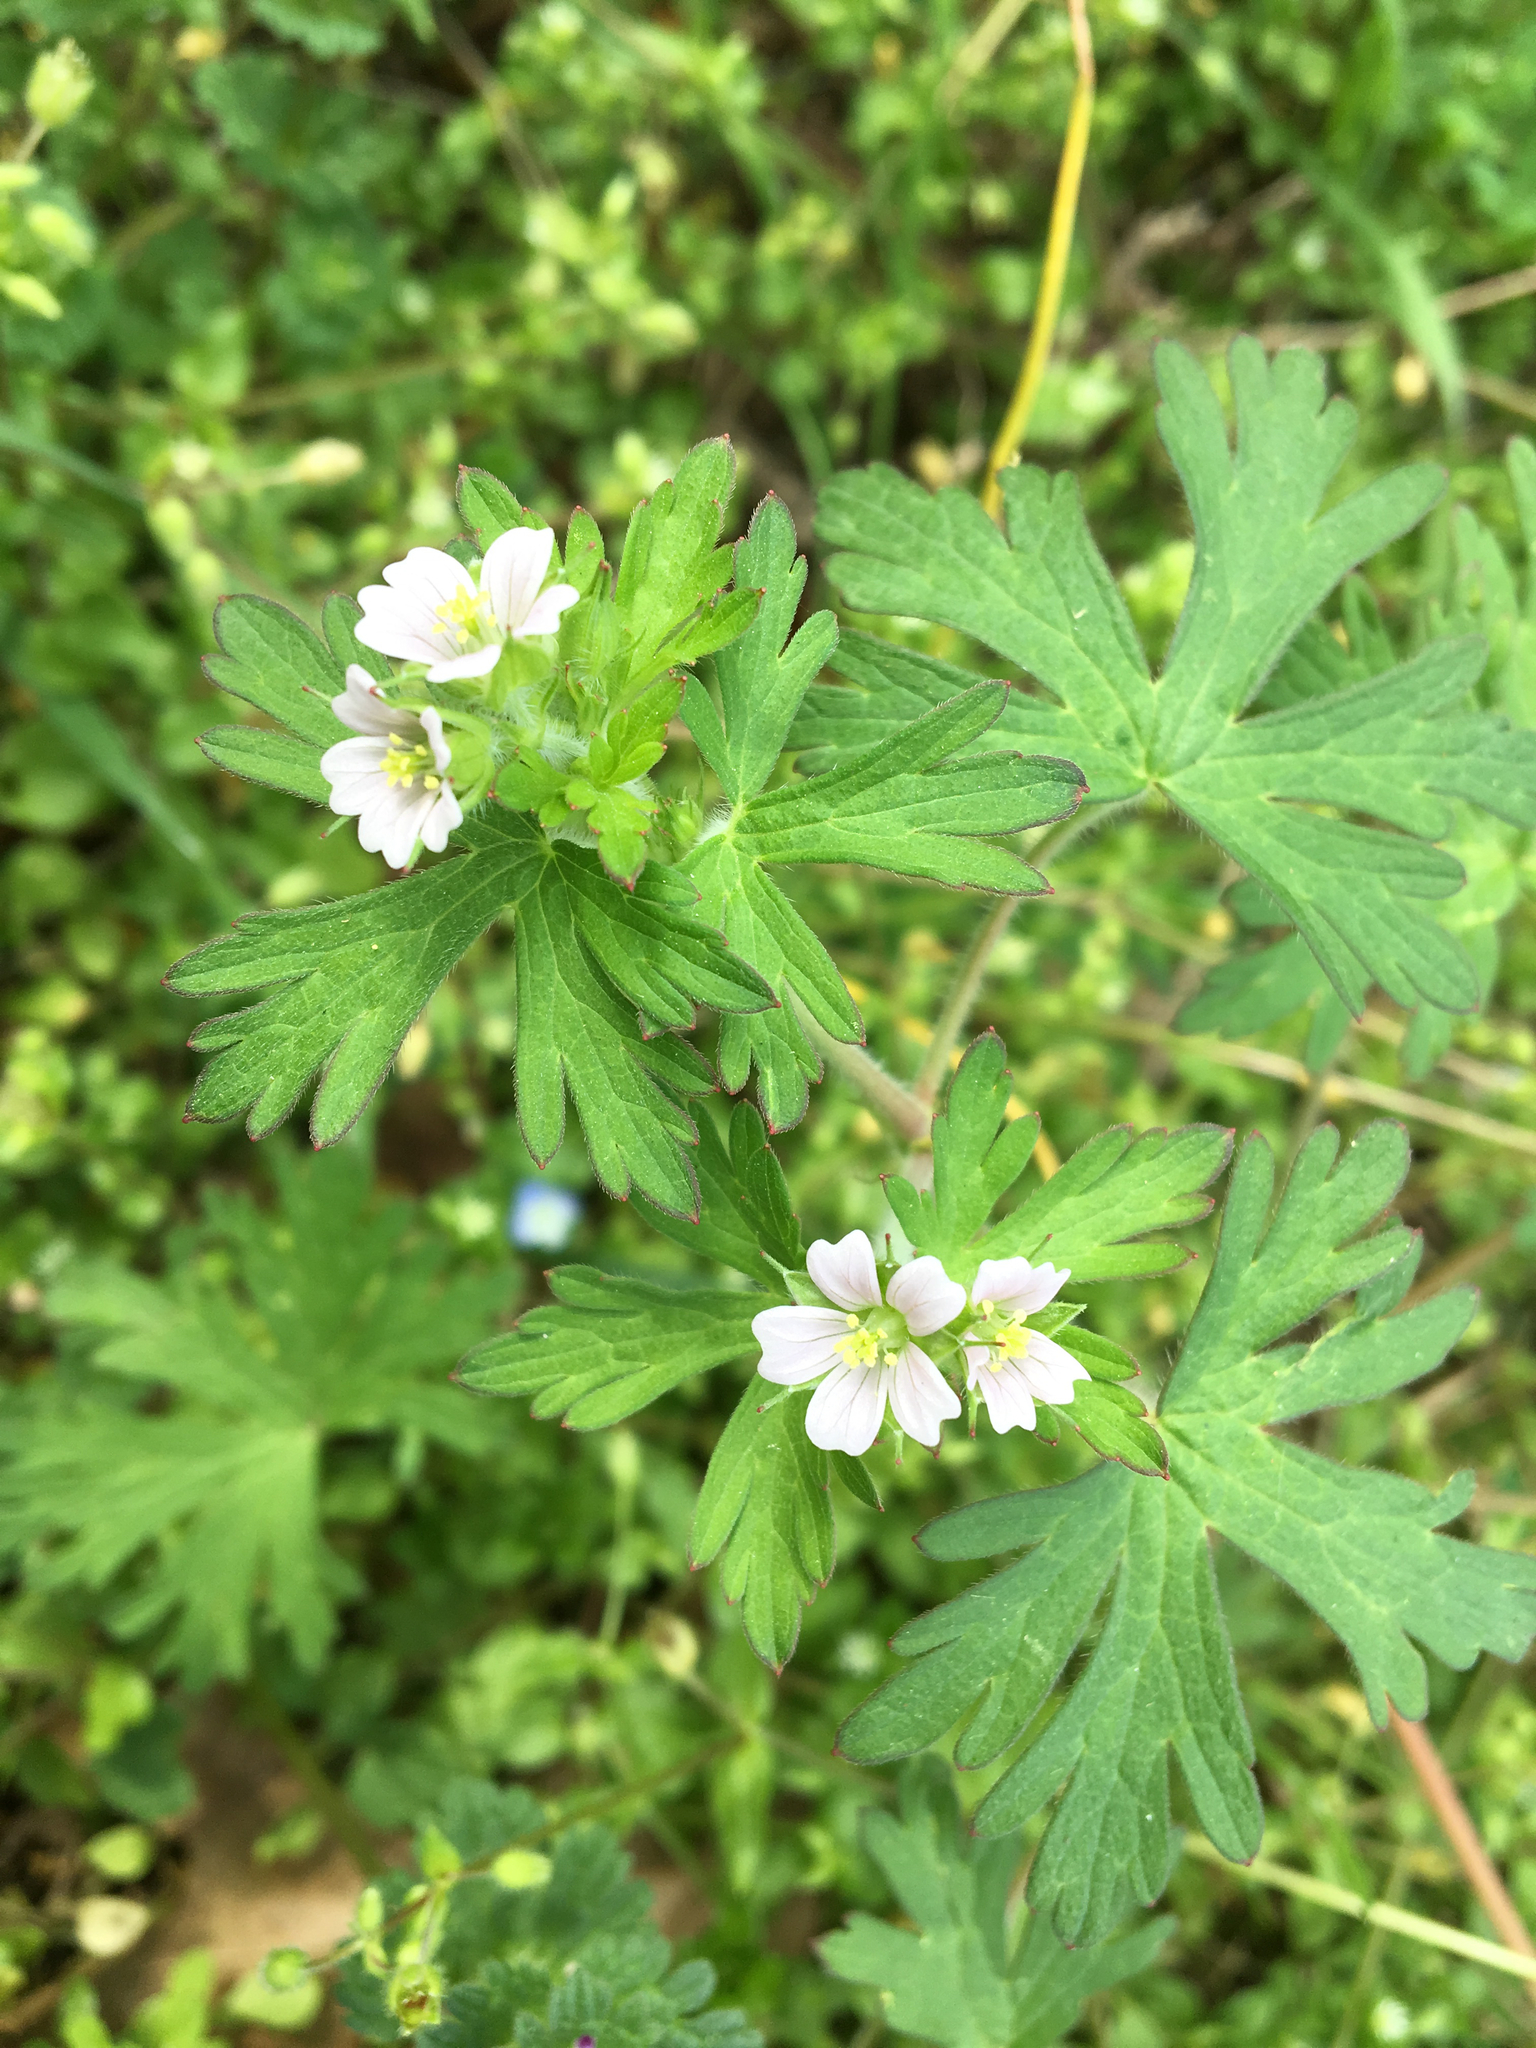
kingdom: Plantae
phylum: Tracheophyta
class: Magnoliopsida
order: Geraniales
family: Geraniaceae
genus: Geranium
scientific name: Geranium carolinianum
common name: Carolina crane's-bill
